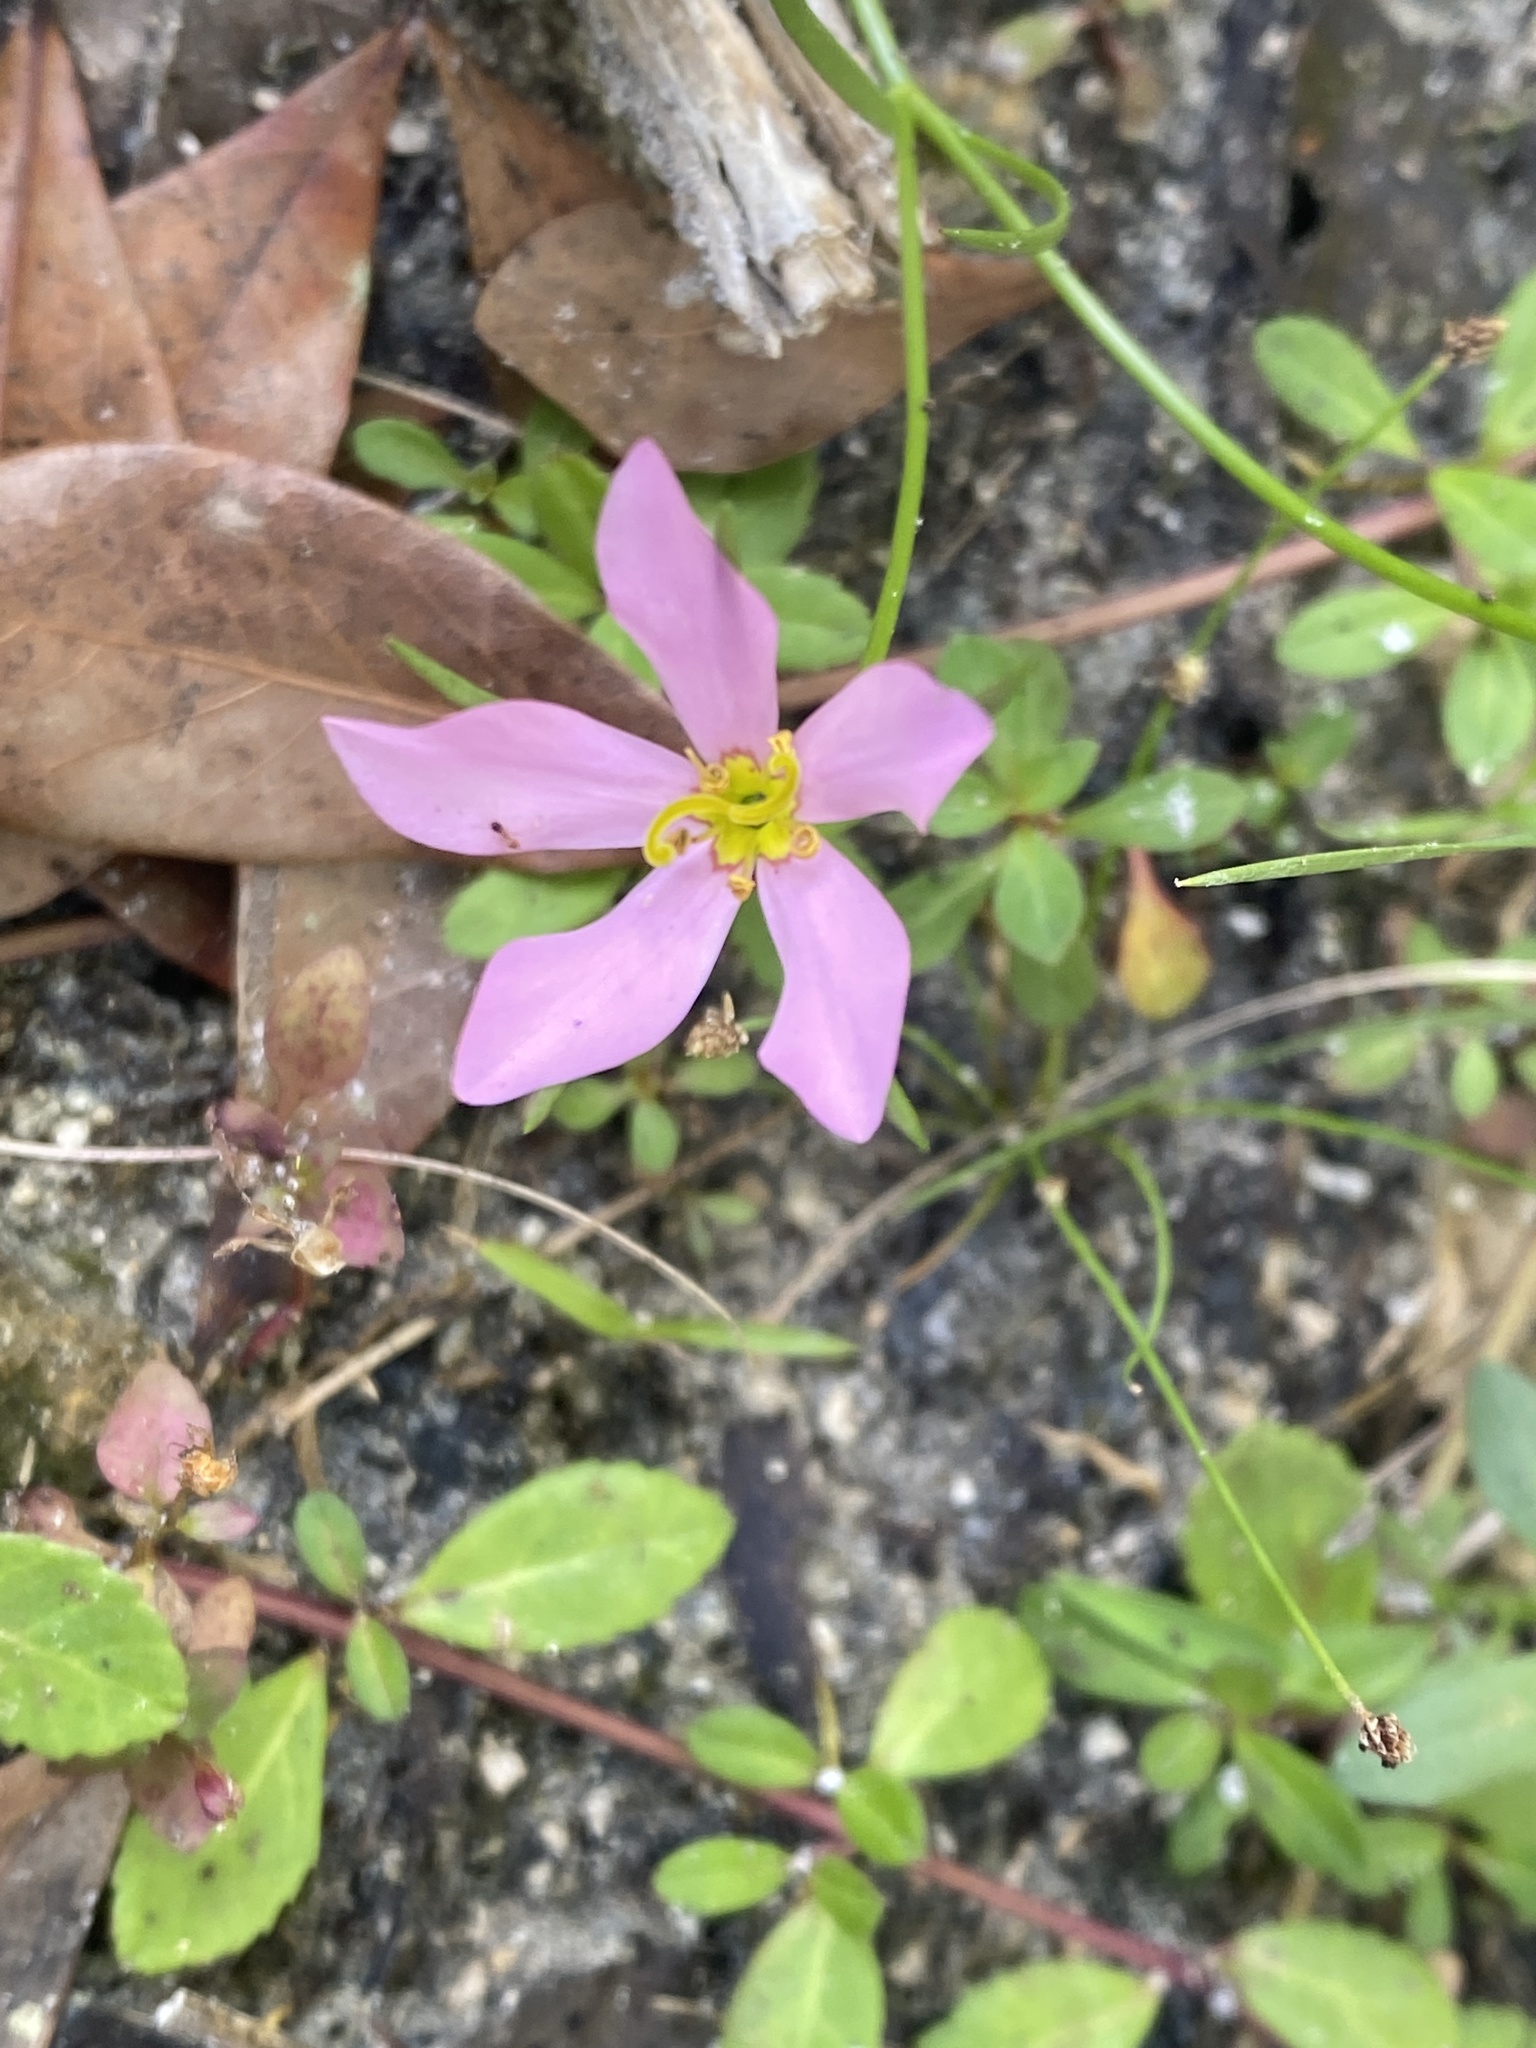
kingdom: Plantae
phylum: Tracheophyta
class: Magnoliopsida
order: Gentianales
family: Gentianaceae
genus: Sabatia
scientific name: Sabatia stellaris
